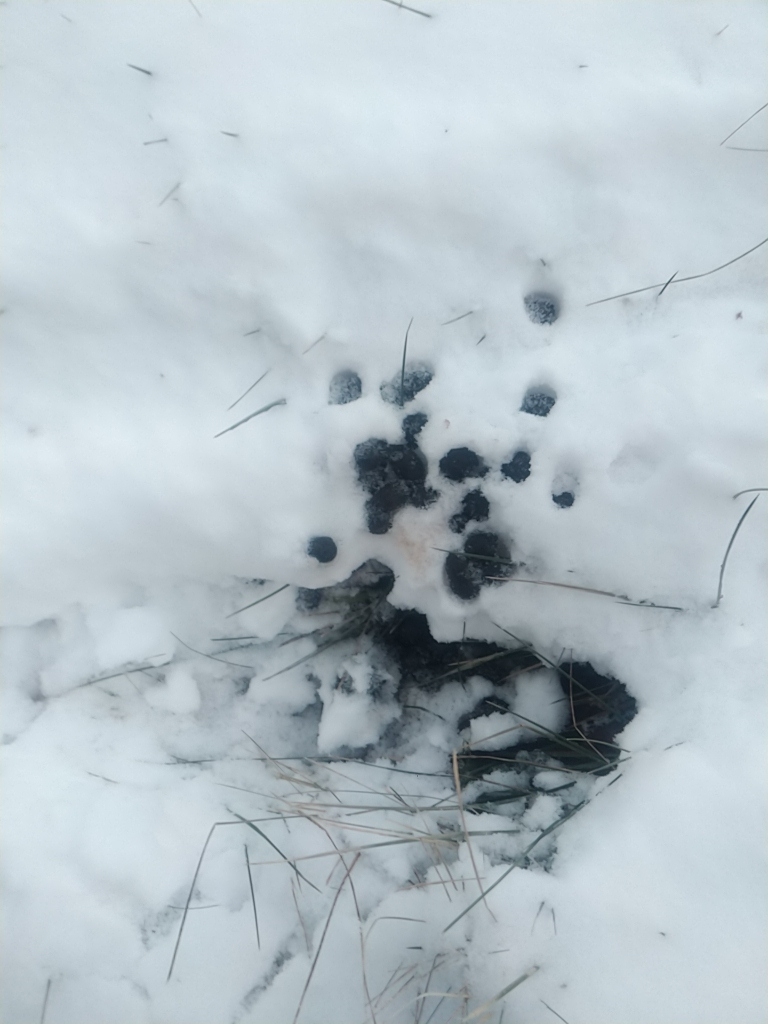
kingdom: Animalia
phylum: Chordata
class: Mammalia
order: Artiodactyla
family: Cervidae
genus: Odocoileus
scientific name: Odocoileus virginianus
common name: White-tailed deer
